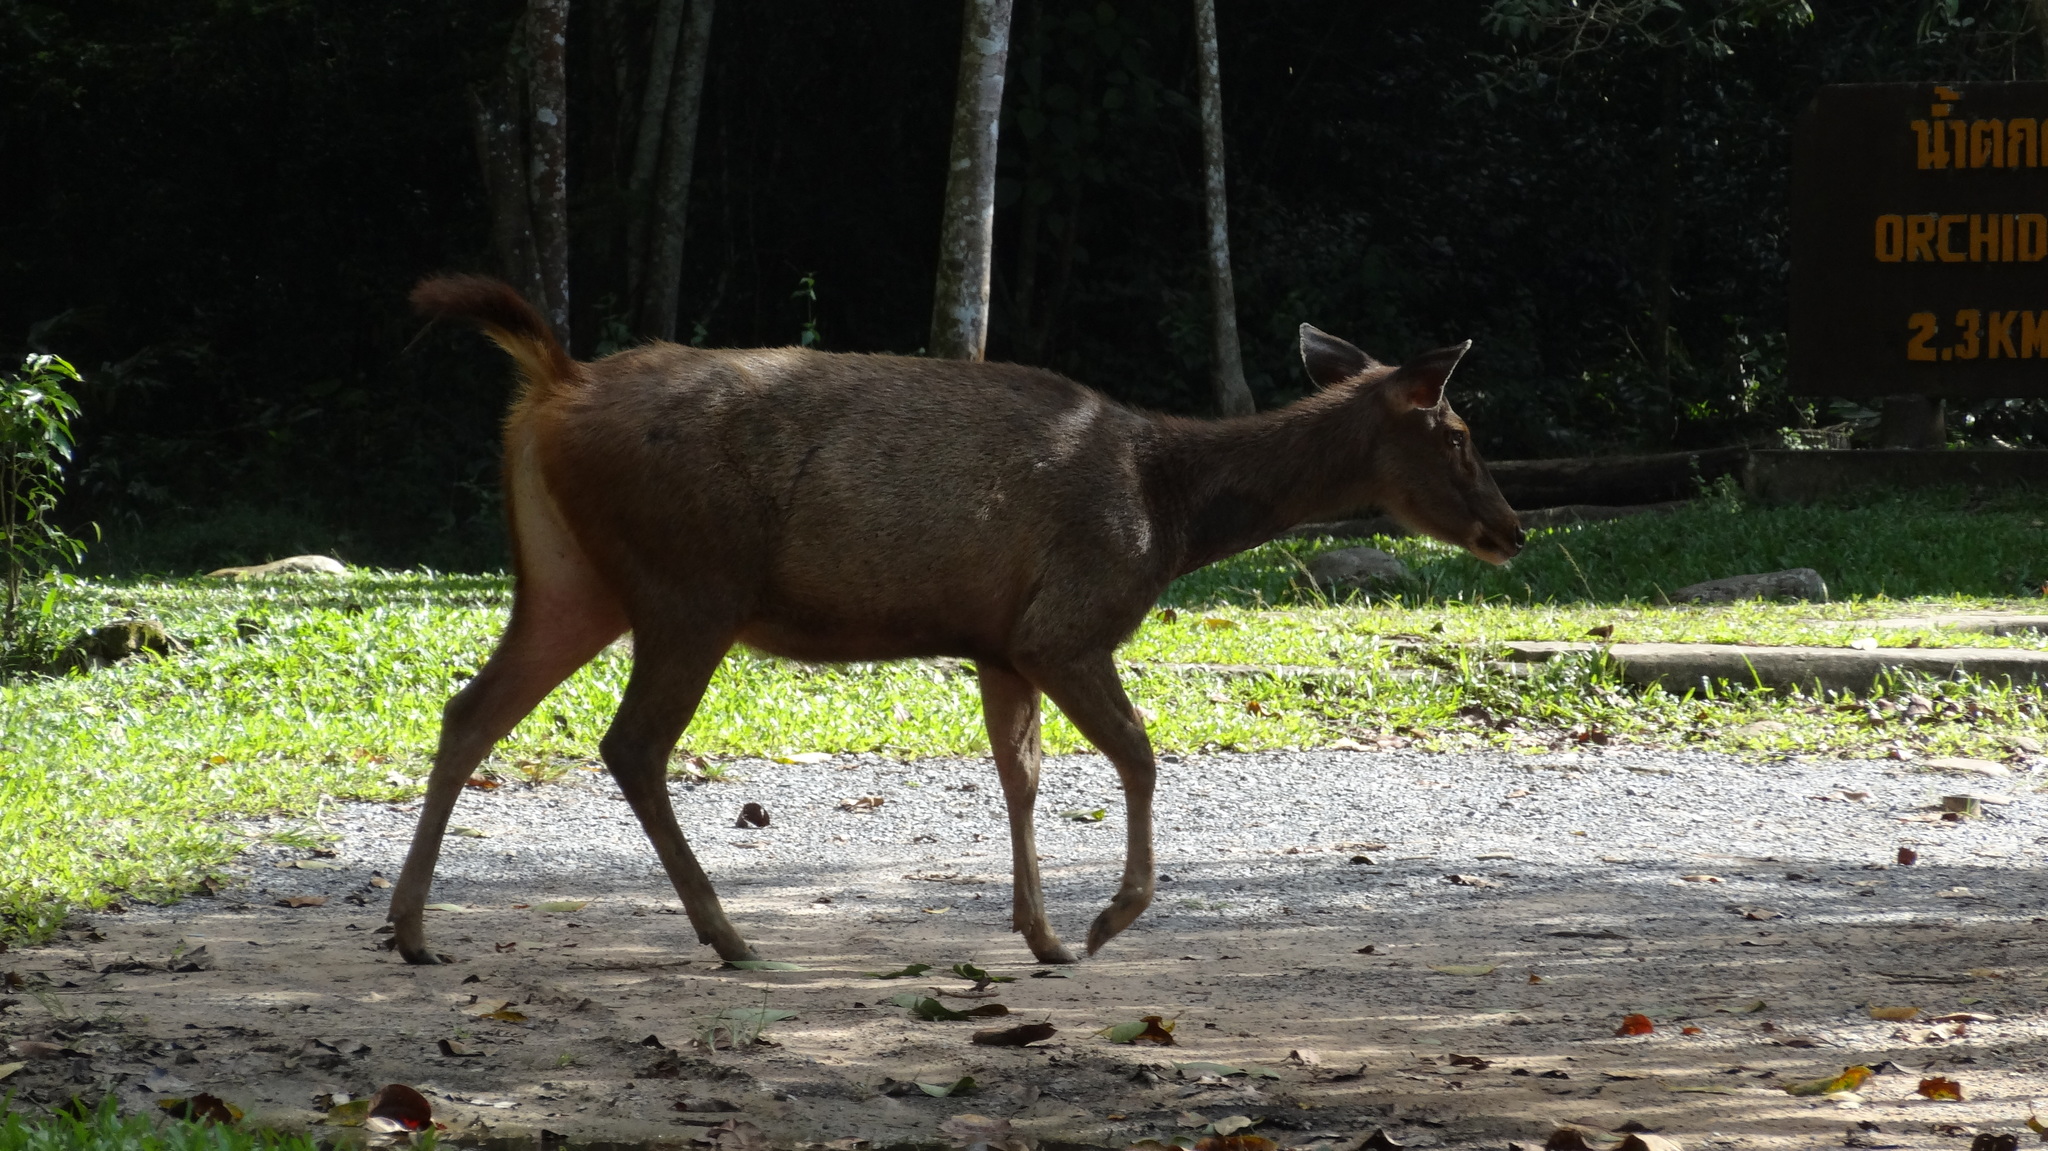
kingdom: Animalia
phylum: Chordata
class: Mammalia
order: Artiodactyla
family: Cervidae
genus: Rusa
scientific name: Rusa unicolor
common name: Sambar
